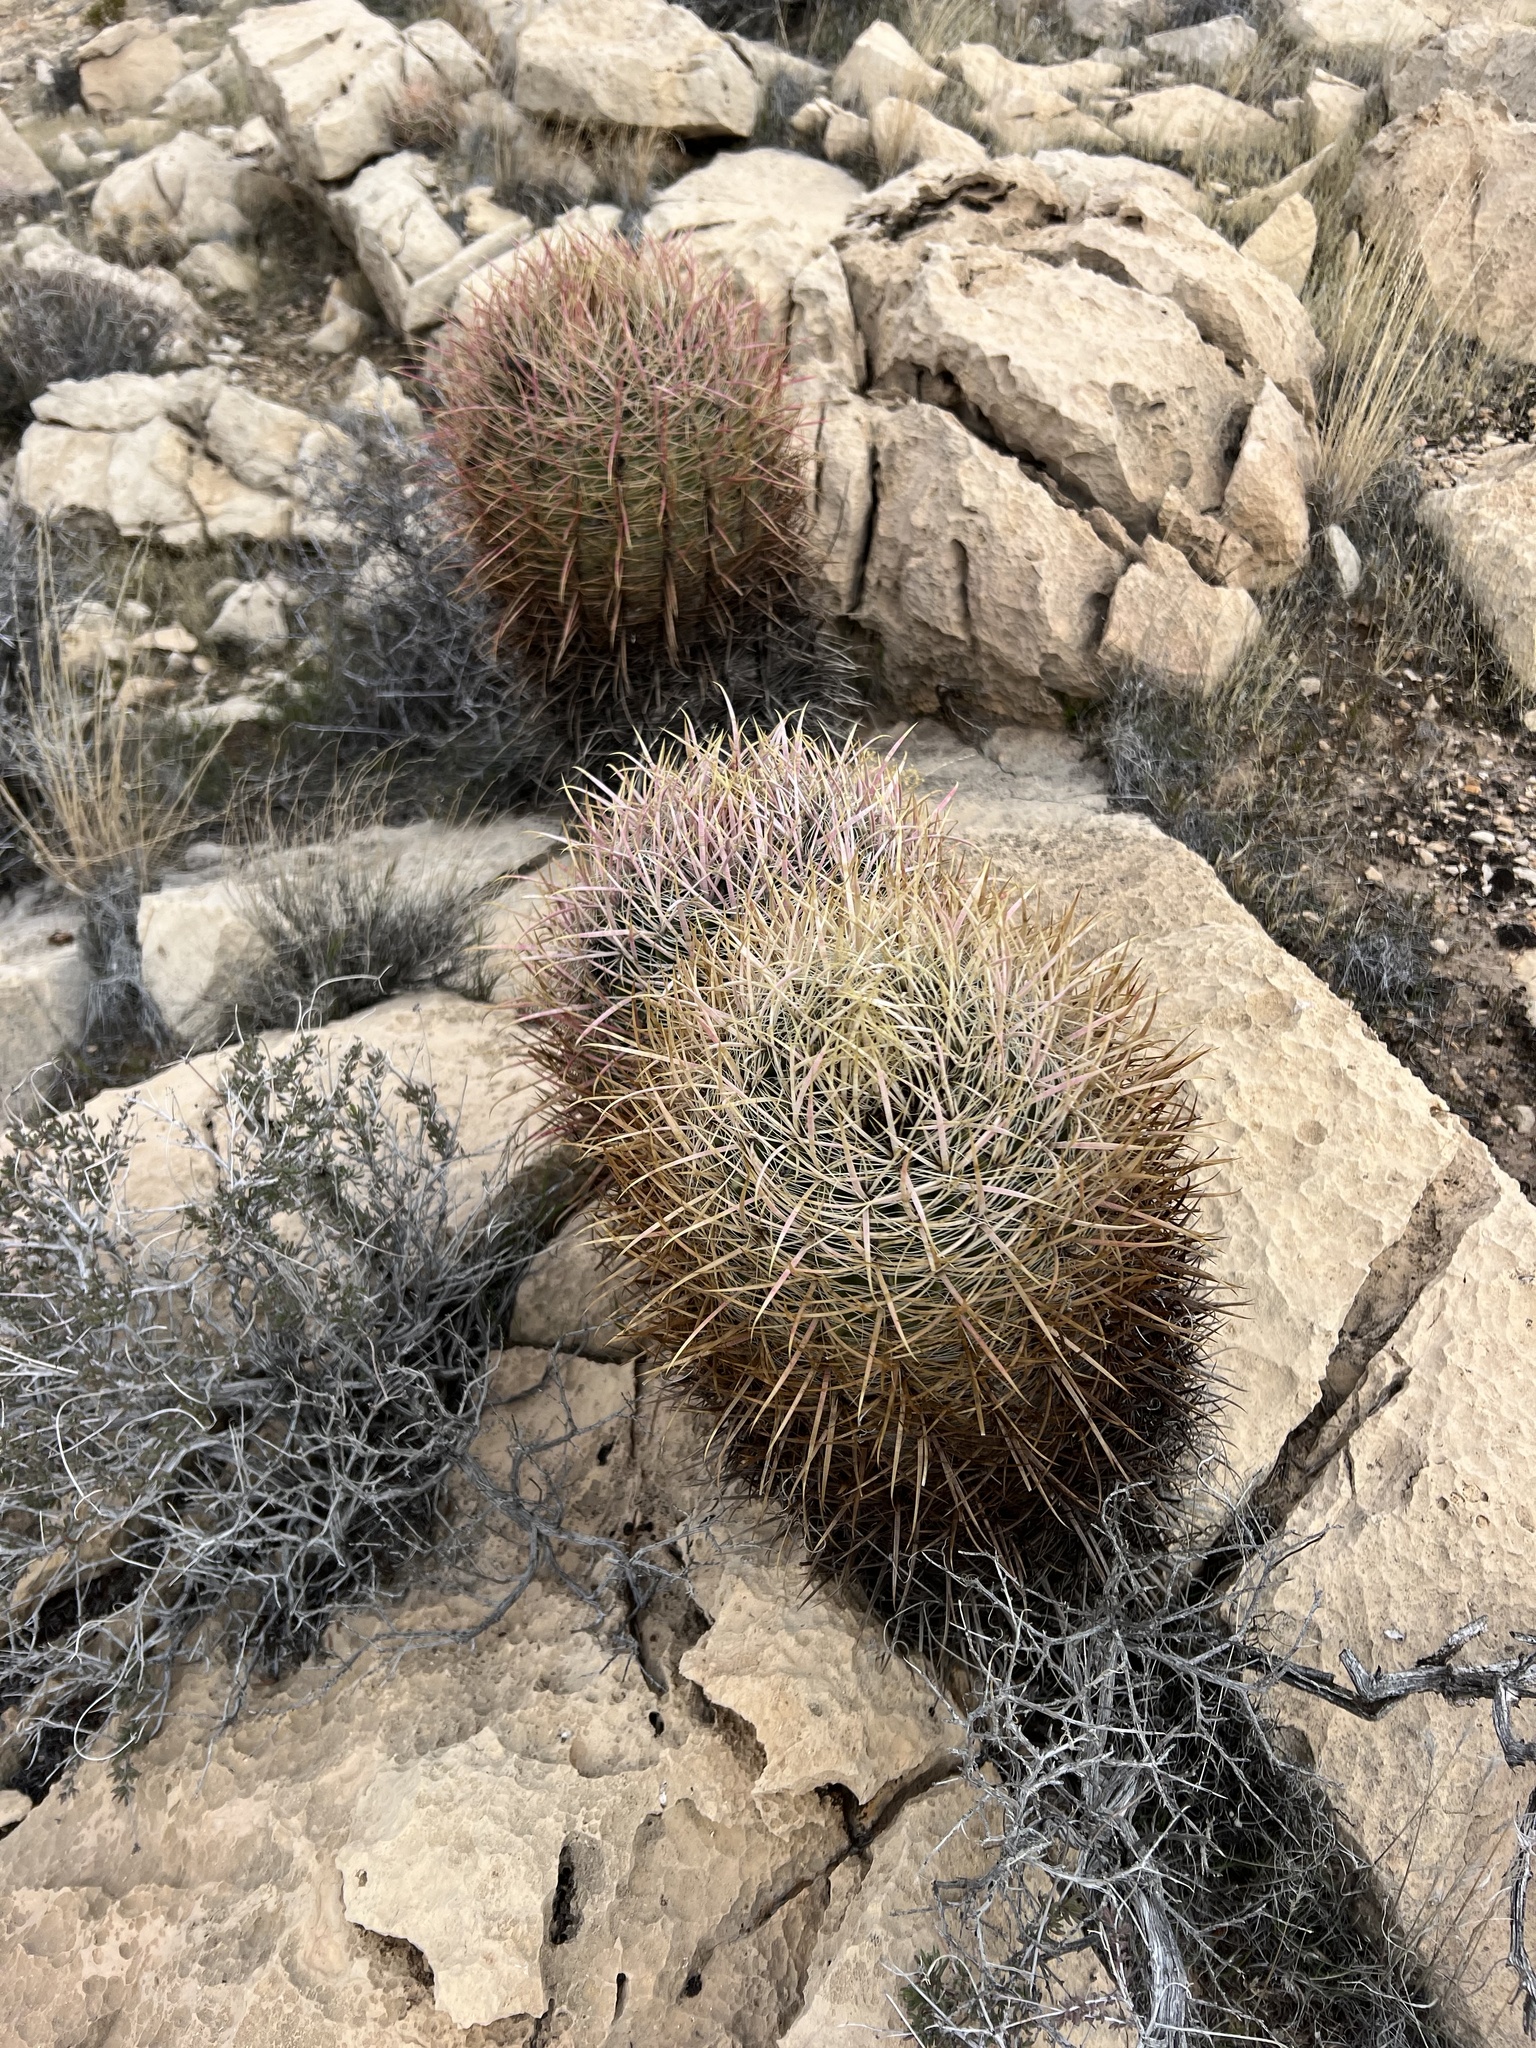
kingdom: Plantae
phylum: Tracheophyta
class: Magnoliopsida
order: Caryophyllales
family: Cactaceae
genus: Ferocactus
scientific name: Ferocactus cylindraceus
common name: California barrel cactus
